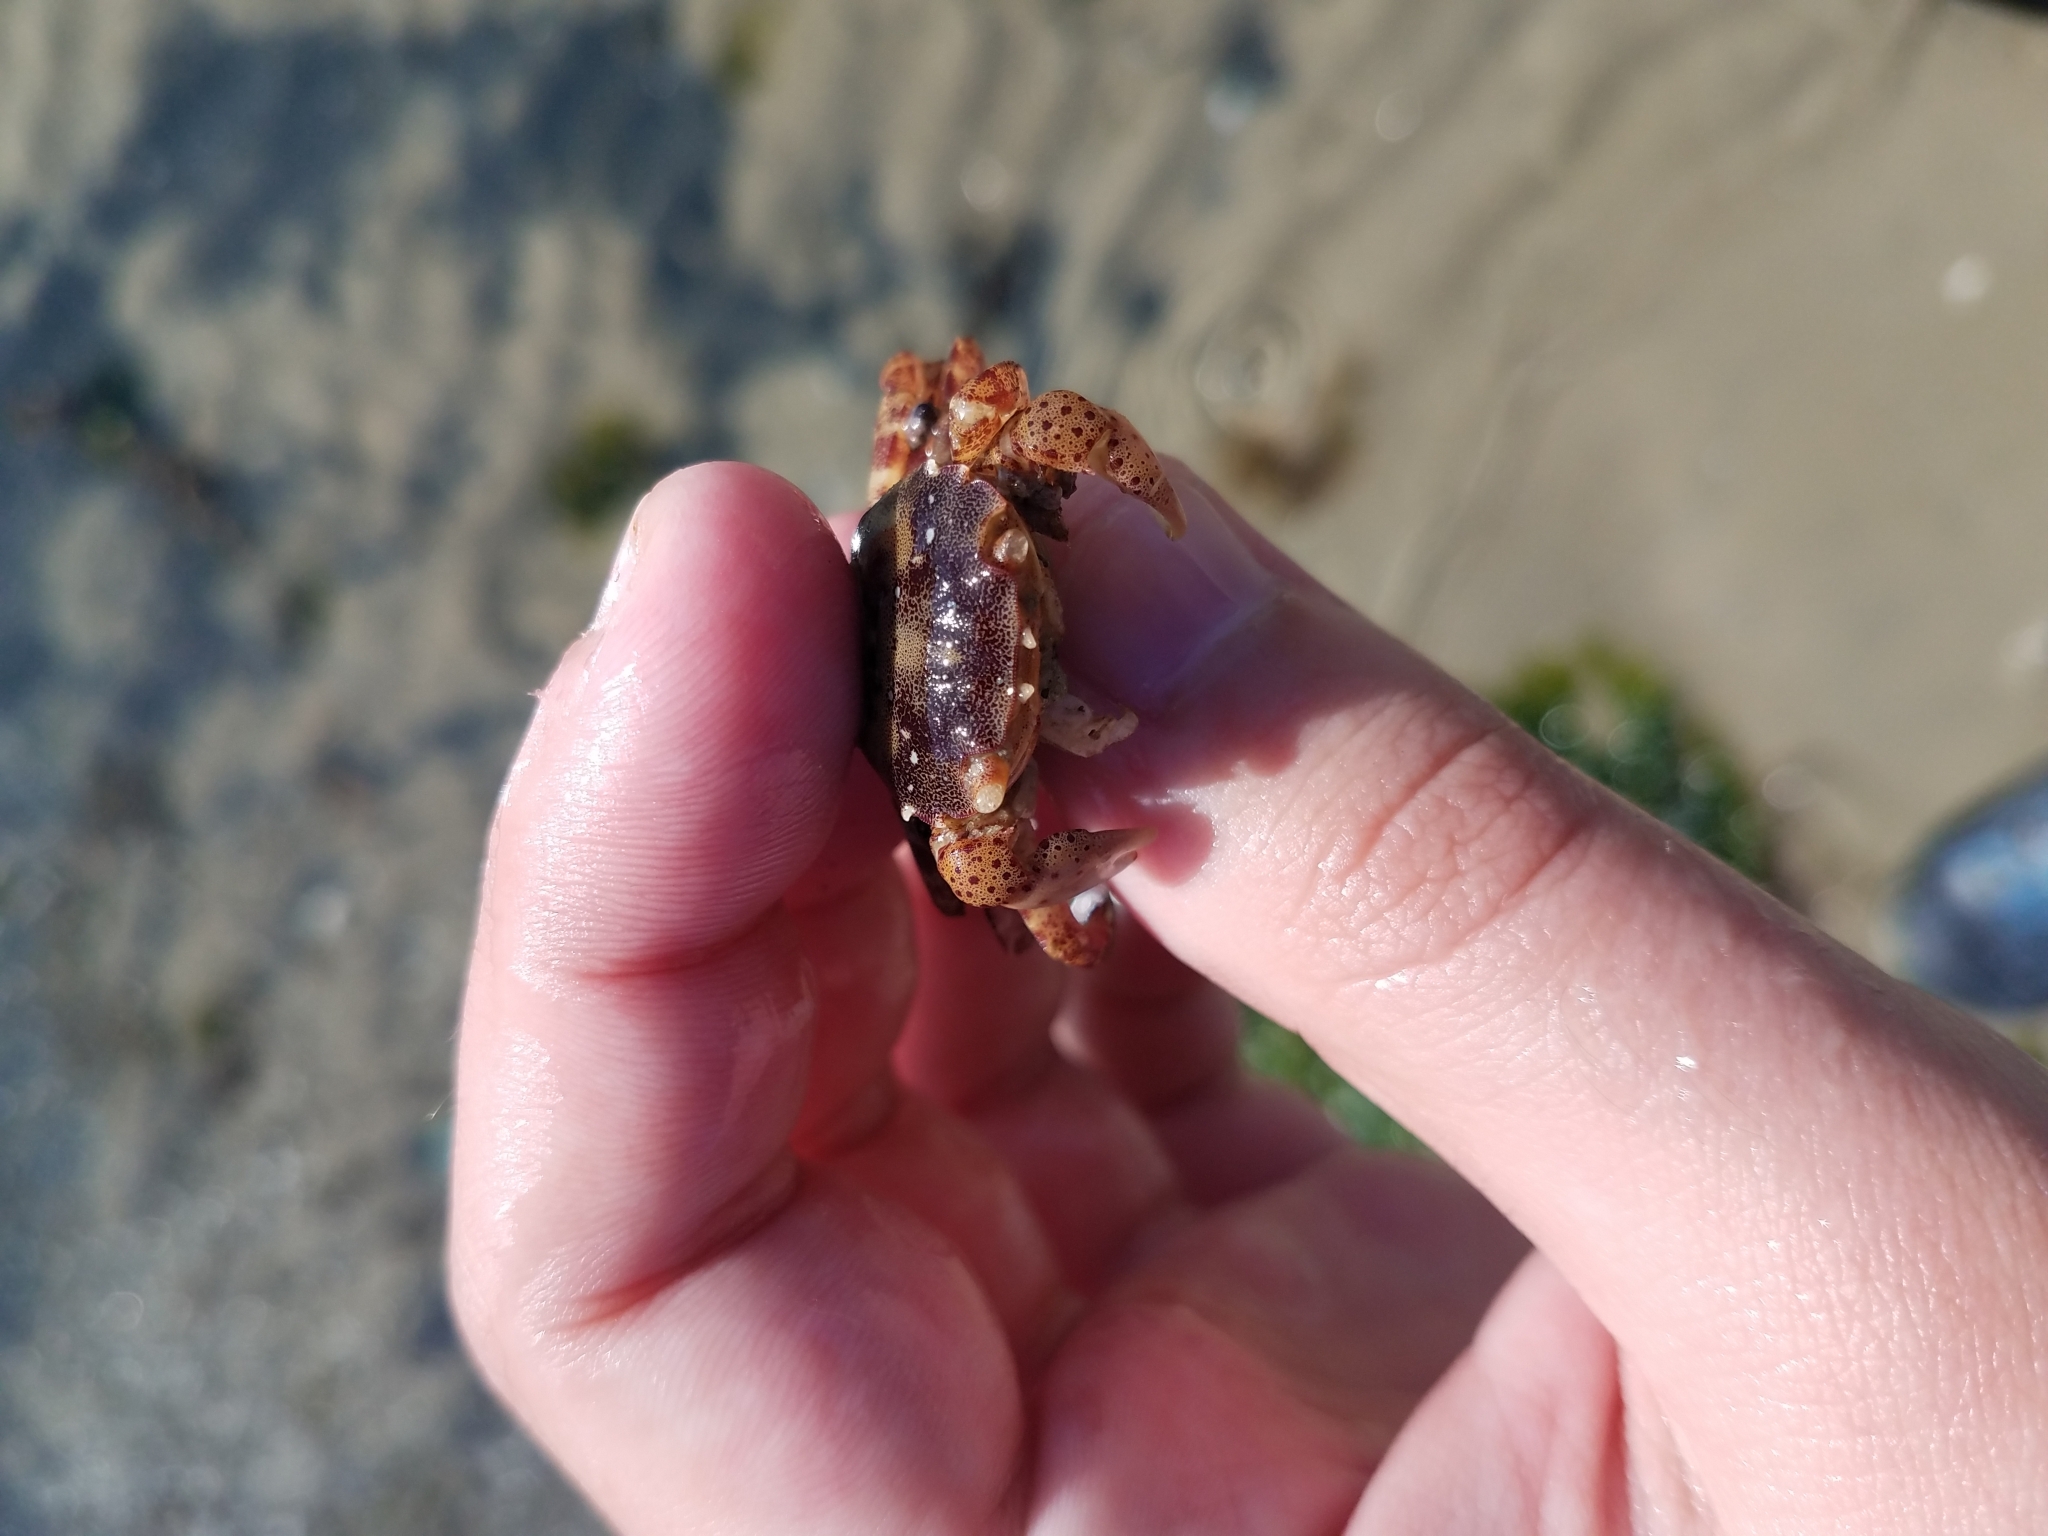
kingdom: Animalia
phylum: Arthropoda
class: Malacostraca
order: Decapoda
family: Varunidae
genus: Hemigrapsus
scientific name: Hemigrapsus sanguineus
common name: Asian shore crab
